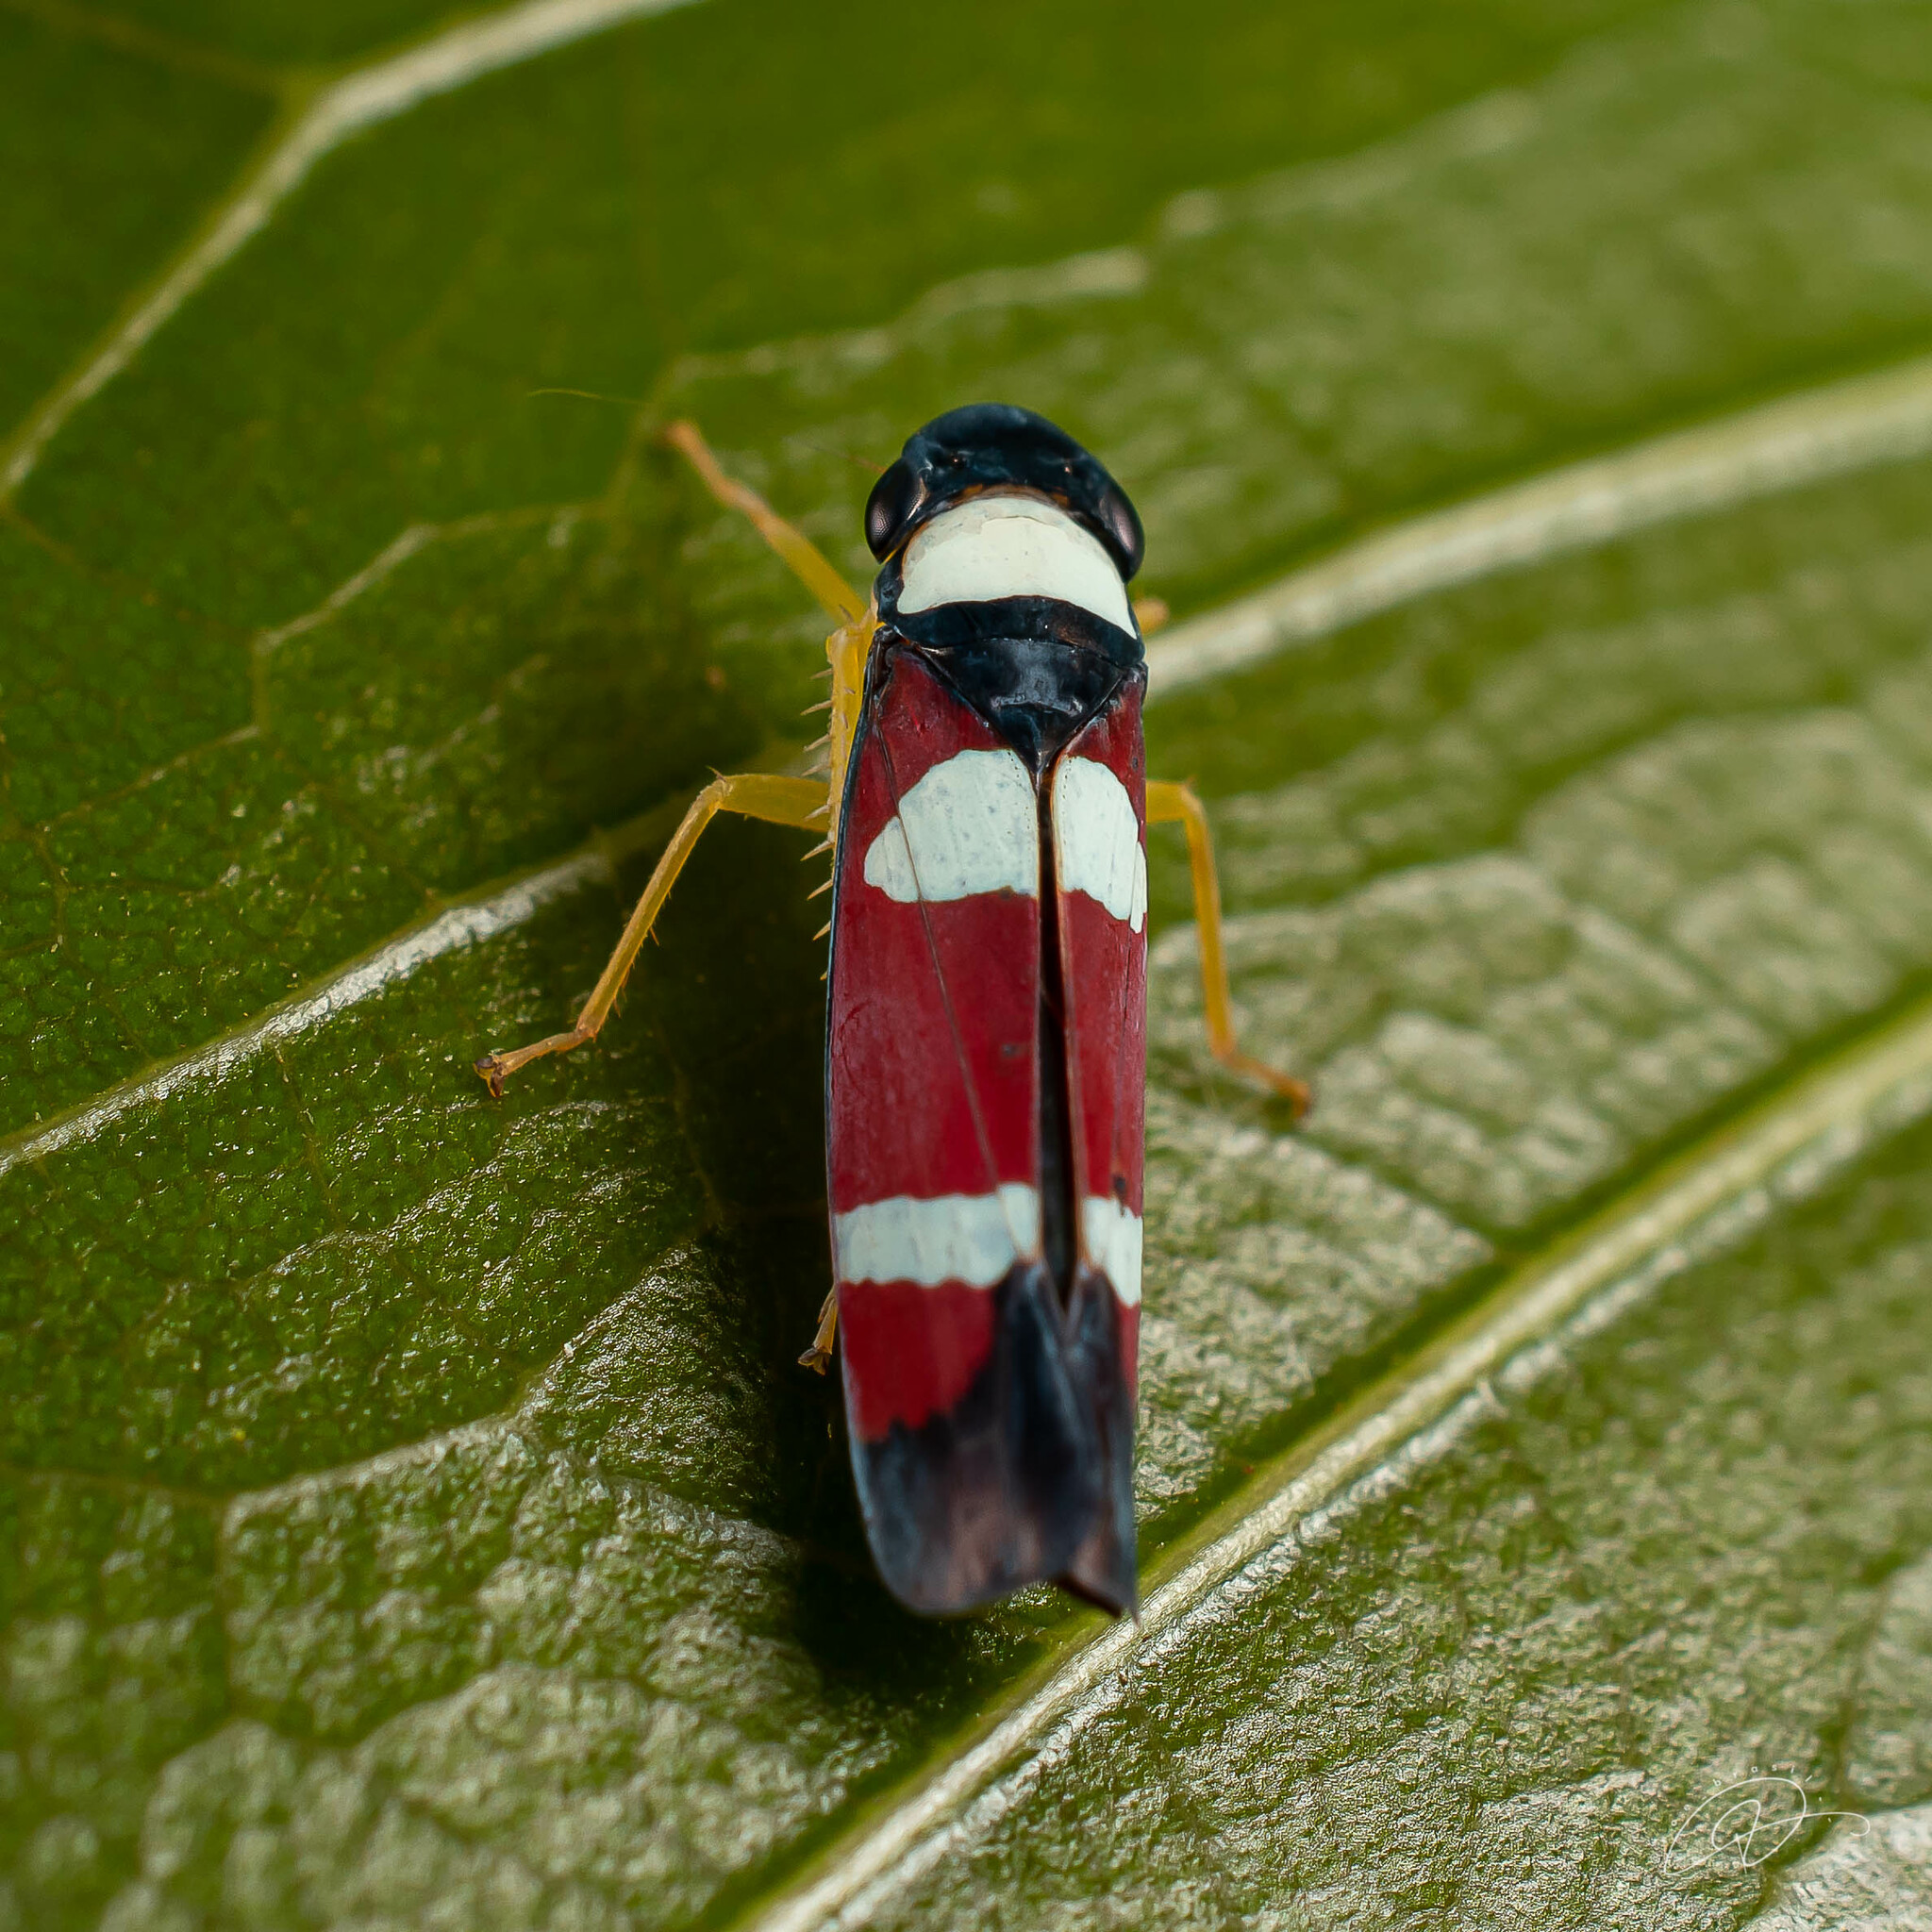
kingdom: Animalia
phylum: Arthropoda
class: Insecta
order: Hemiptera
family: Cicadellidae
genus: Erythrogonia
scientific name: Erythrogonia phoenicea
